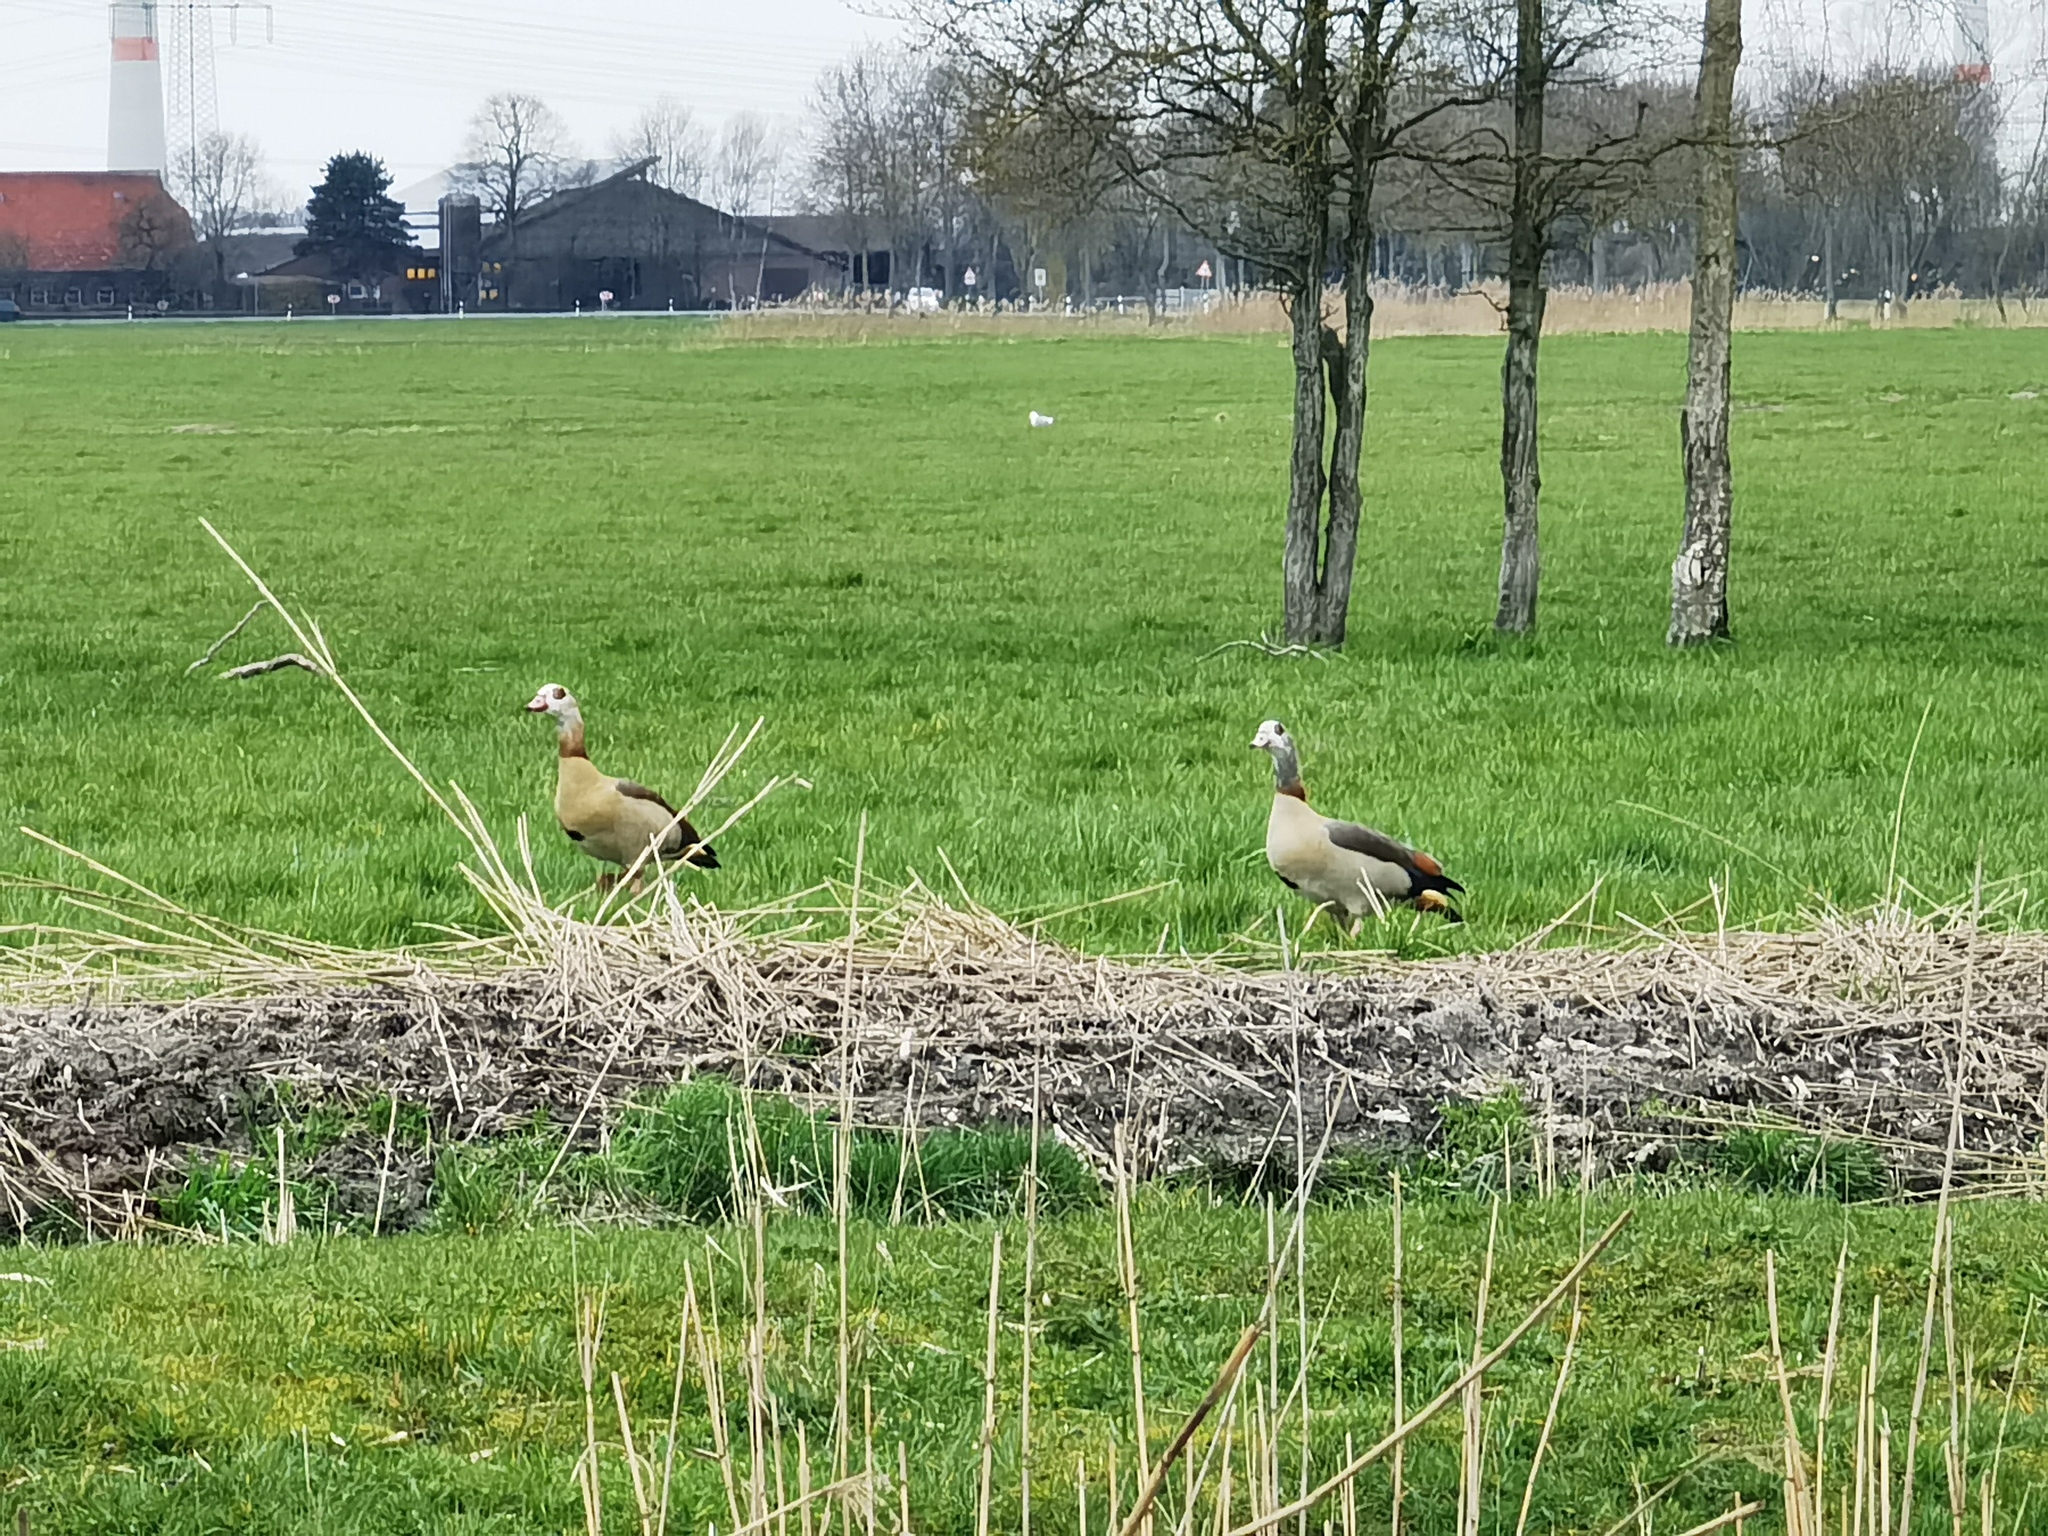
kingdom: Animalia
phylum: Chordata
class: Aves
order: Anseriformes
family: Anatidae
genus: Alopochen
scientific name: Alopochen aegyptiaca
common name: Egyptian goose
